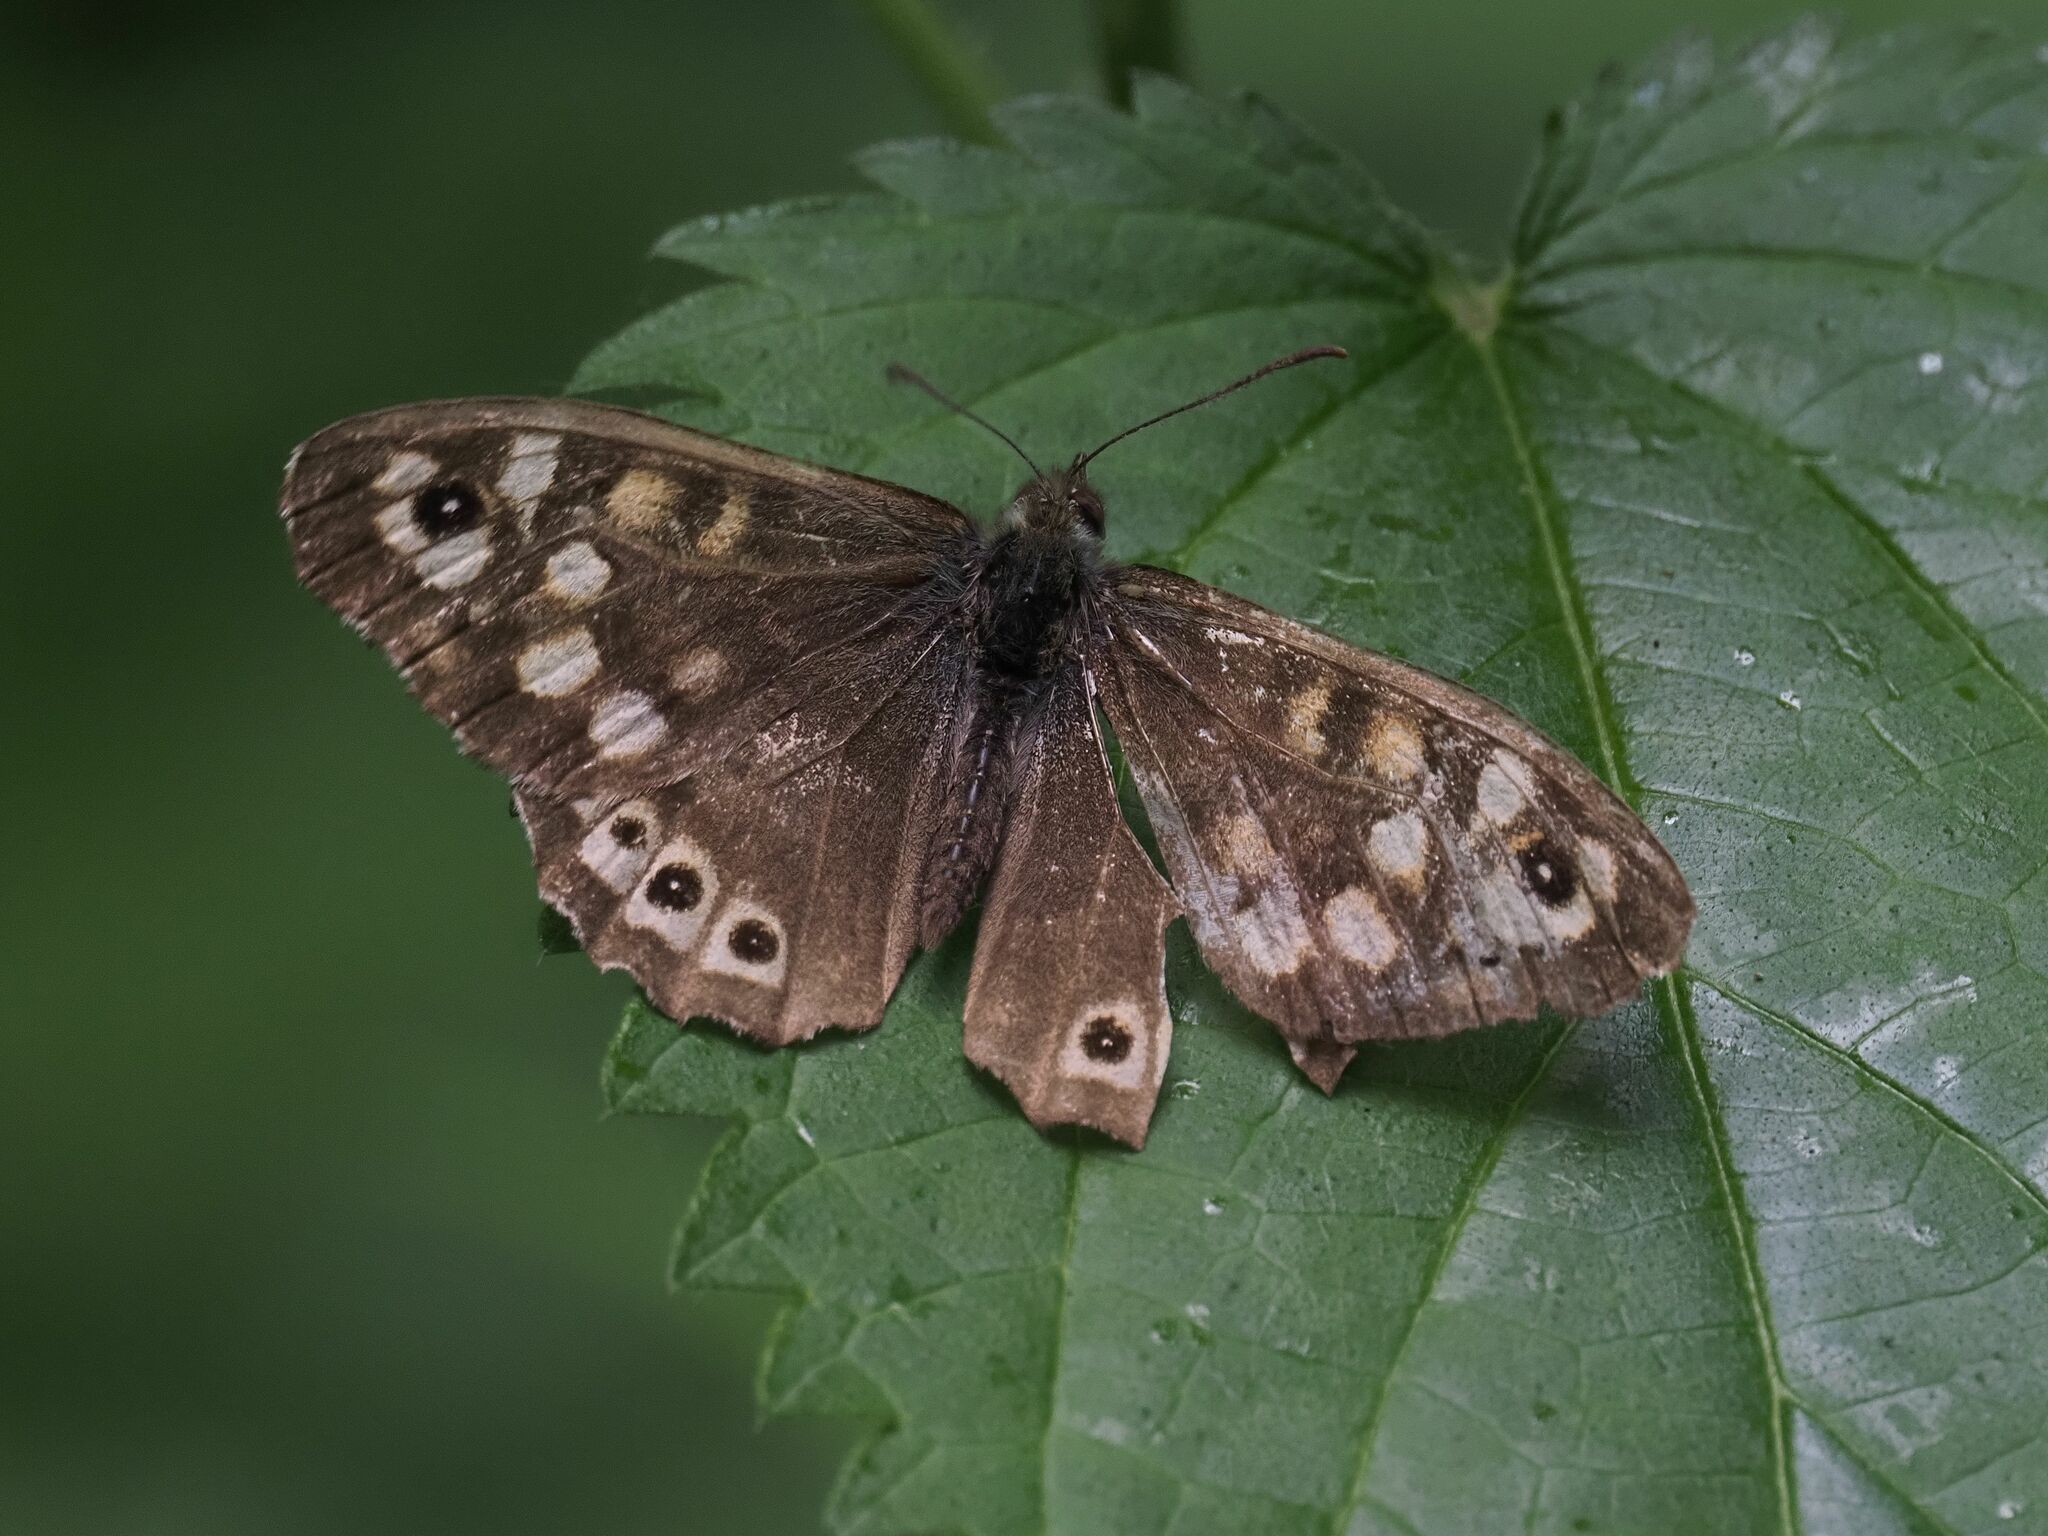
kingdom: Animalia
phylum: Arthropoda
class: Insecta
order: Lepidoptera
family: Nymphalidae
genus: Pararge
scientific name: Pararge aegeria
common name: Speckled wood
